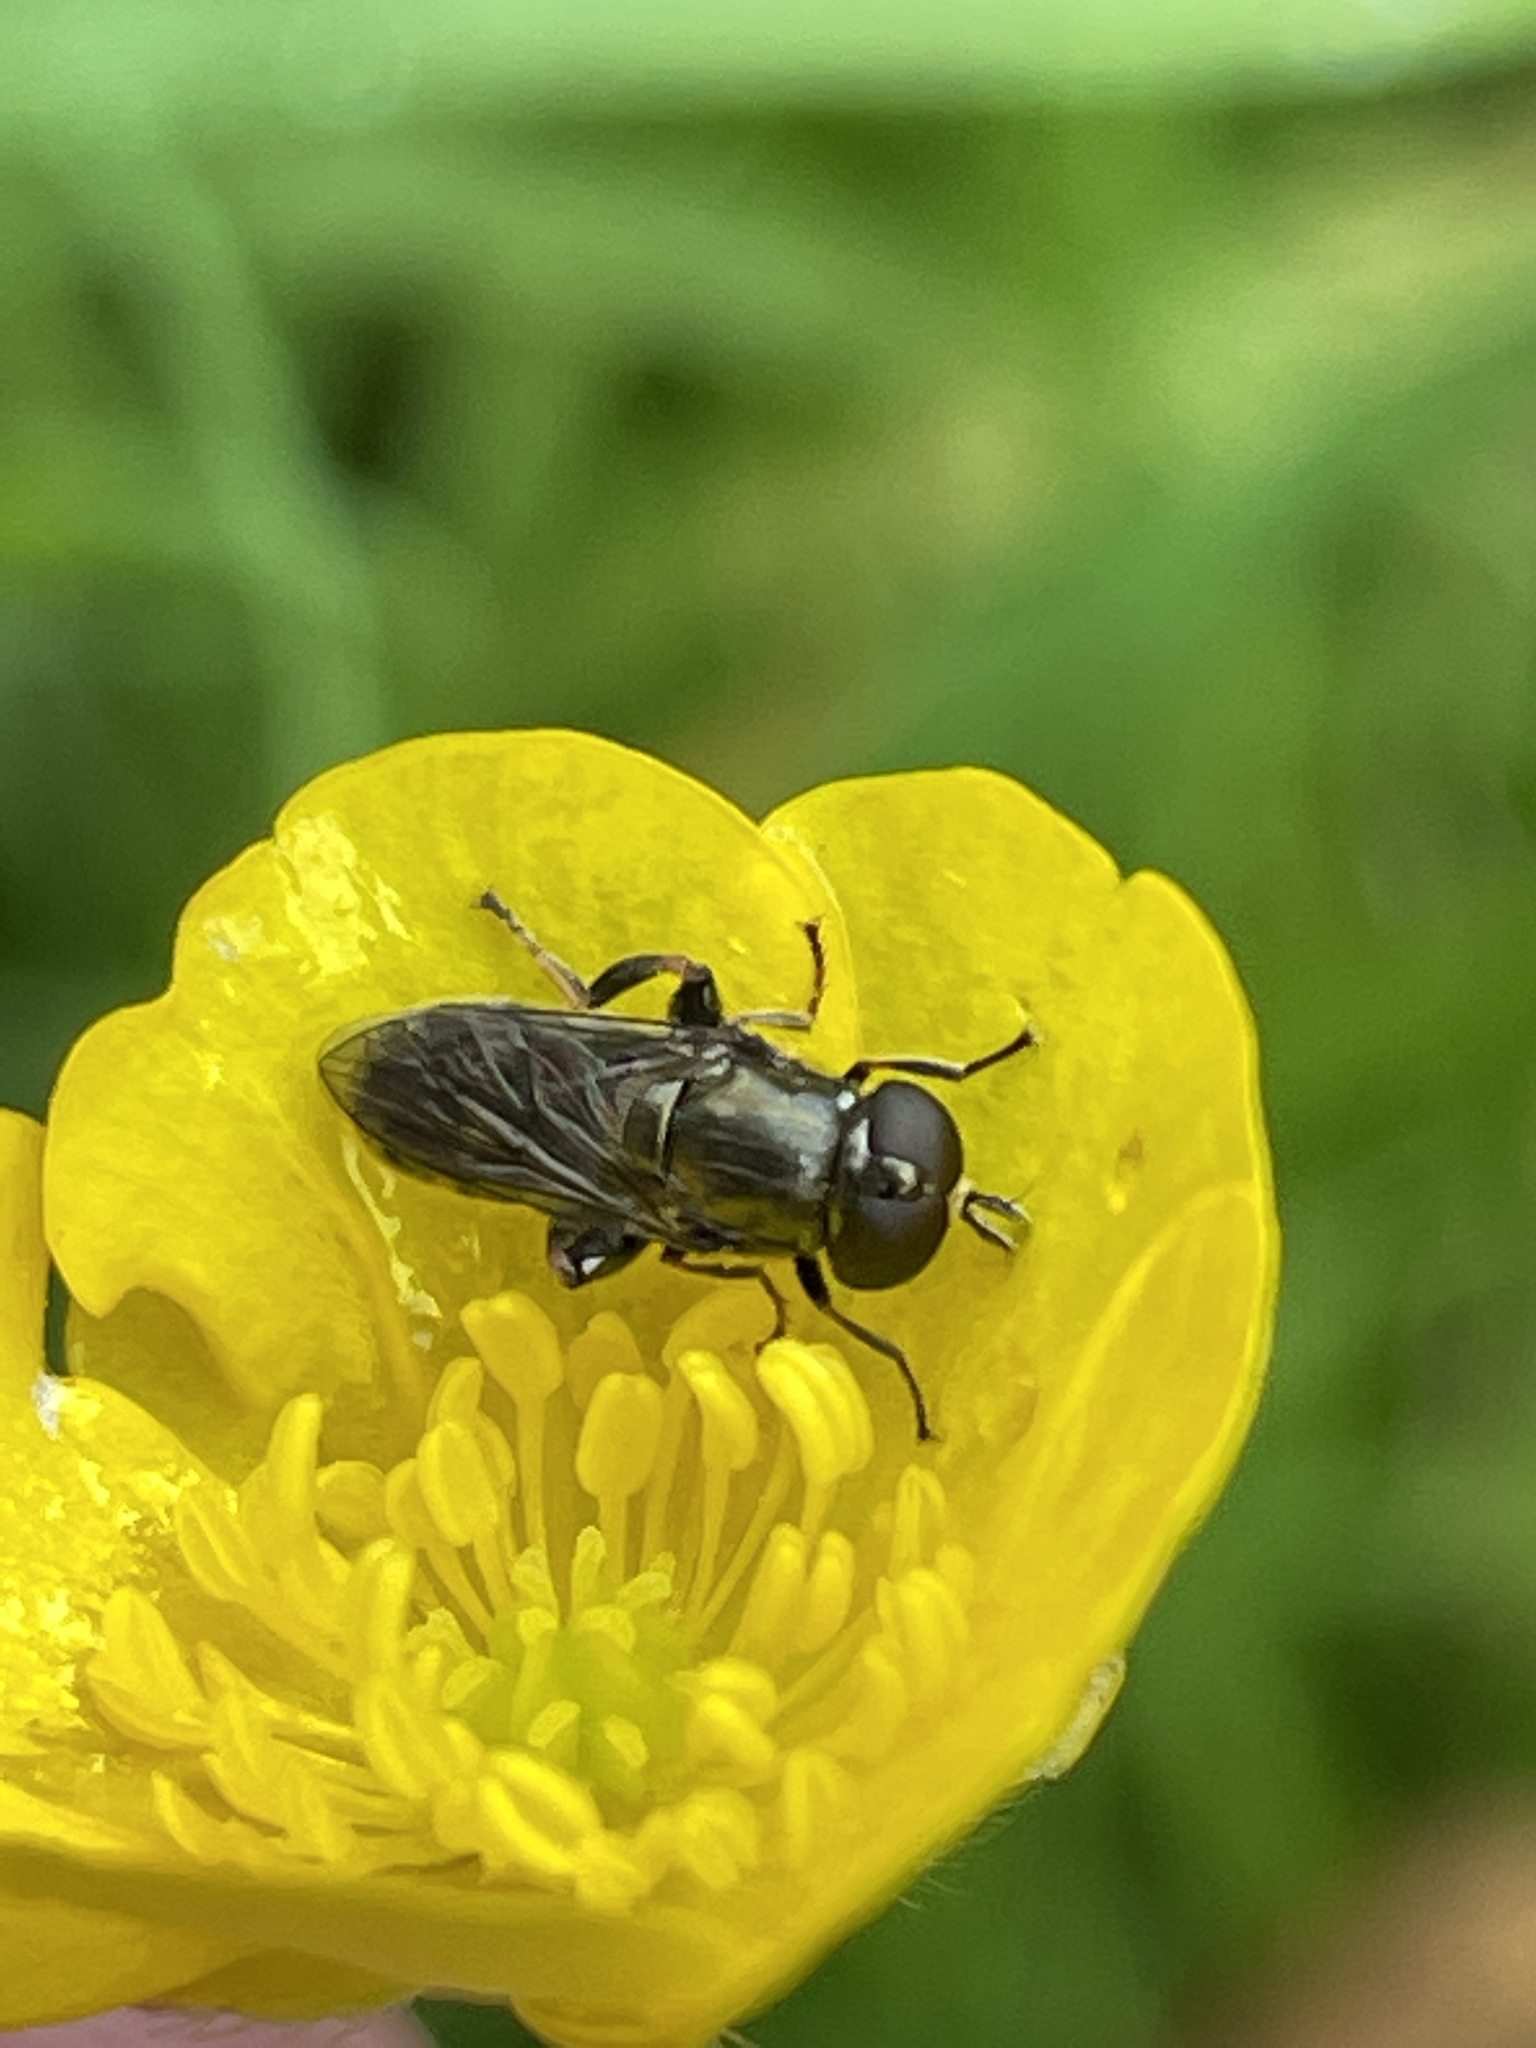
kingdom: Animalia
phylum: Arthropoda
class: Insecta
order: Diptera
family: Syrphidae
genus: Eumerus
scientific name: Eumerus
